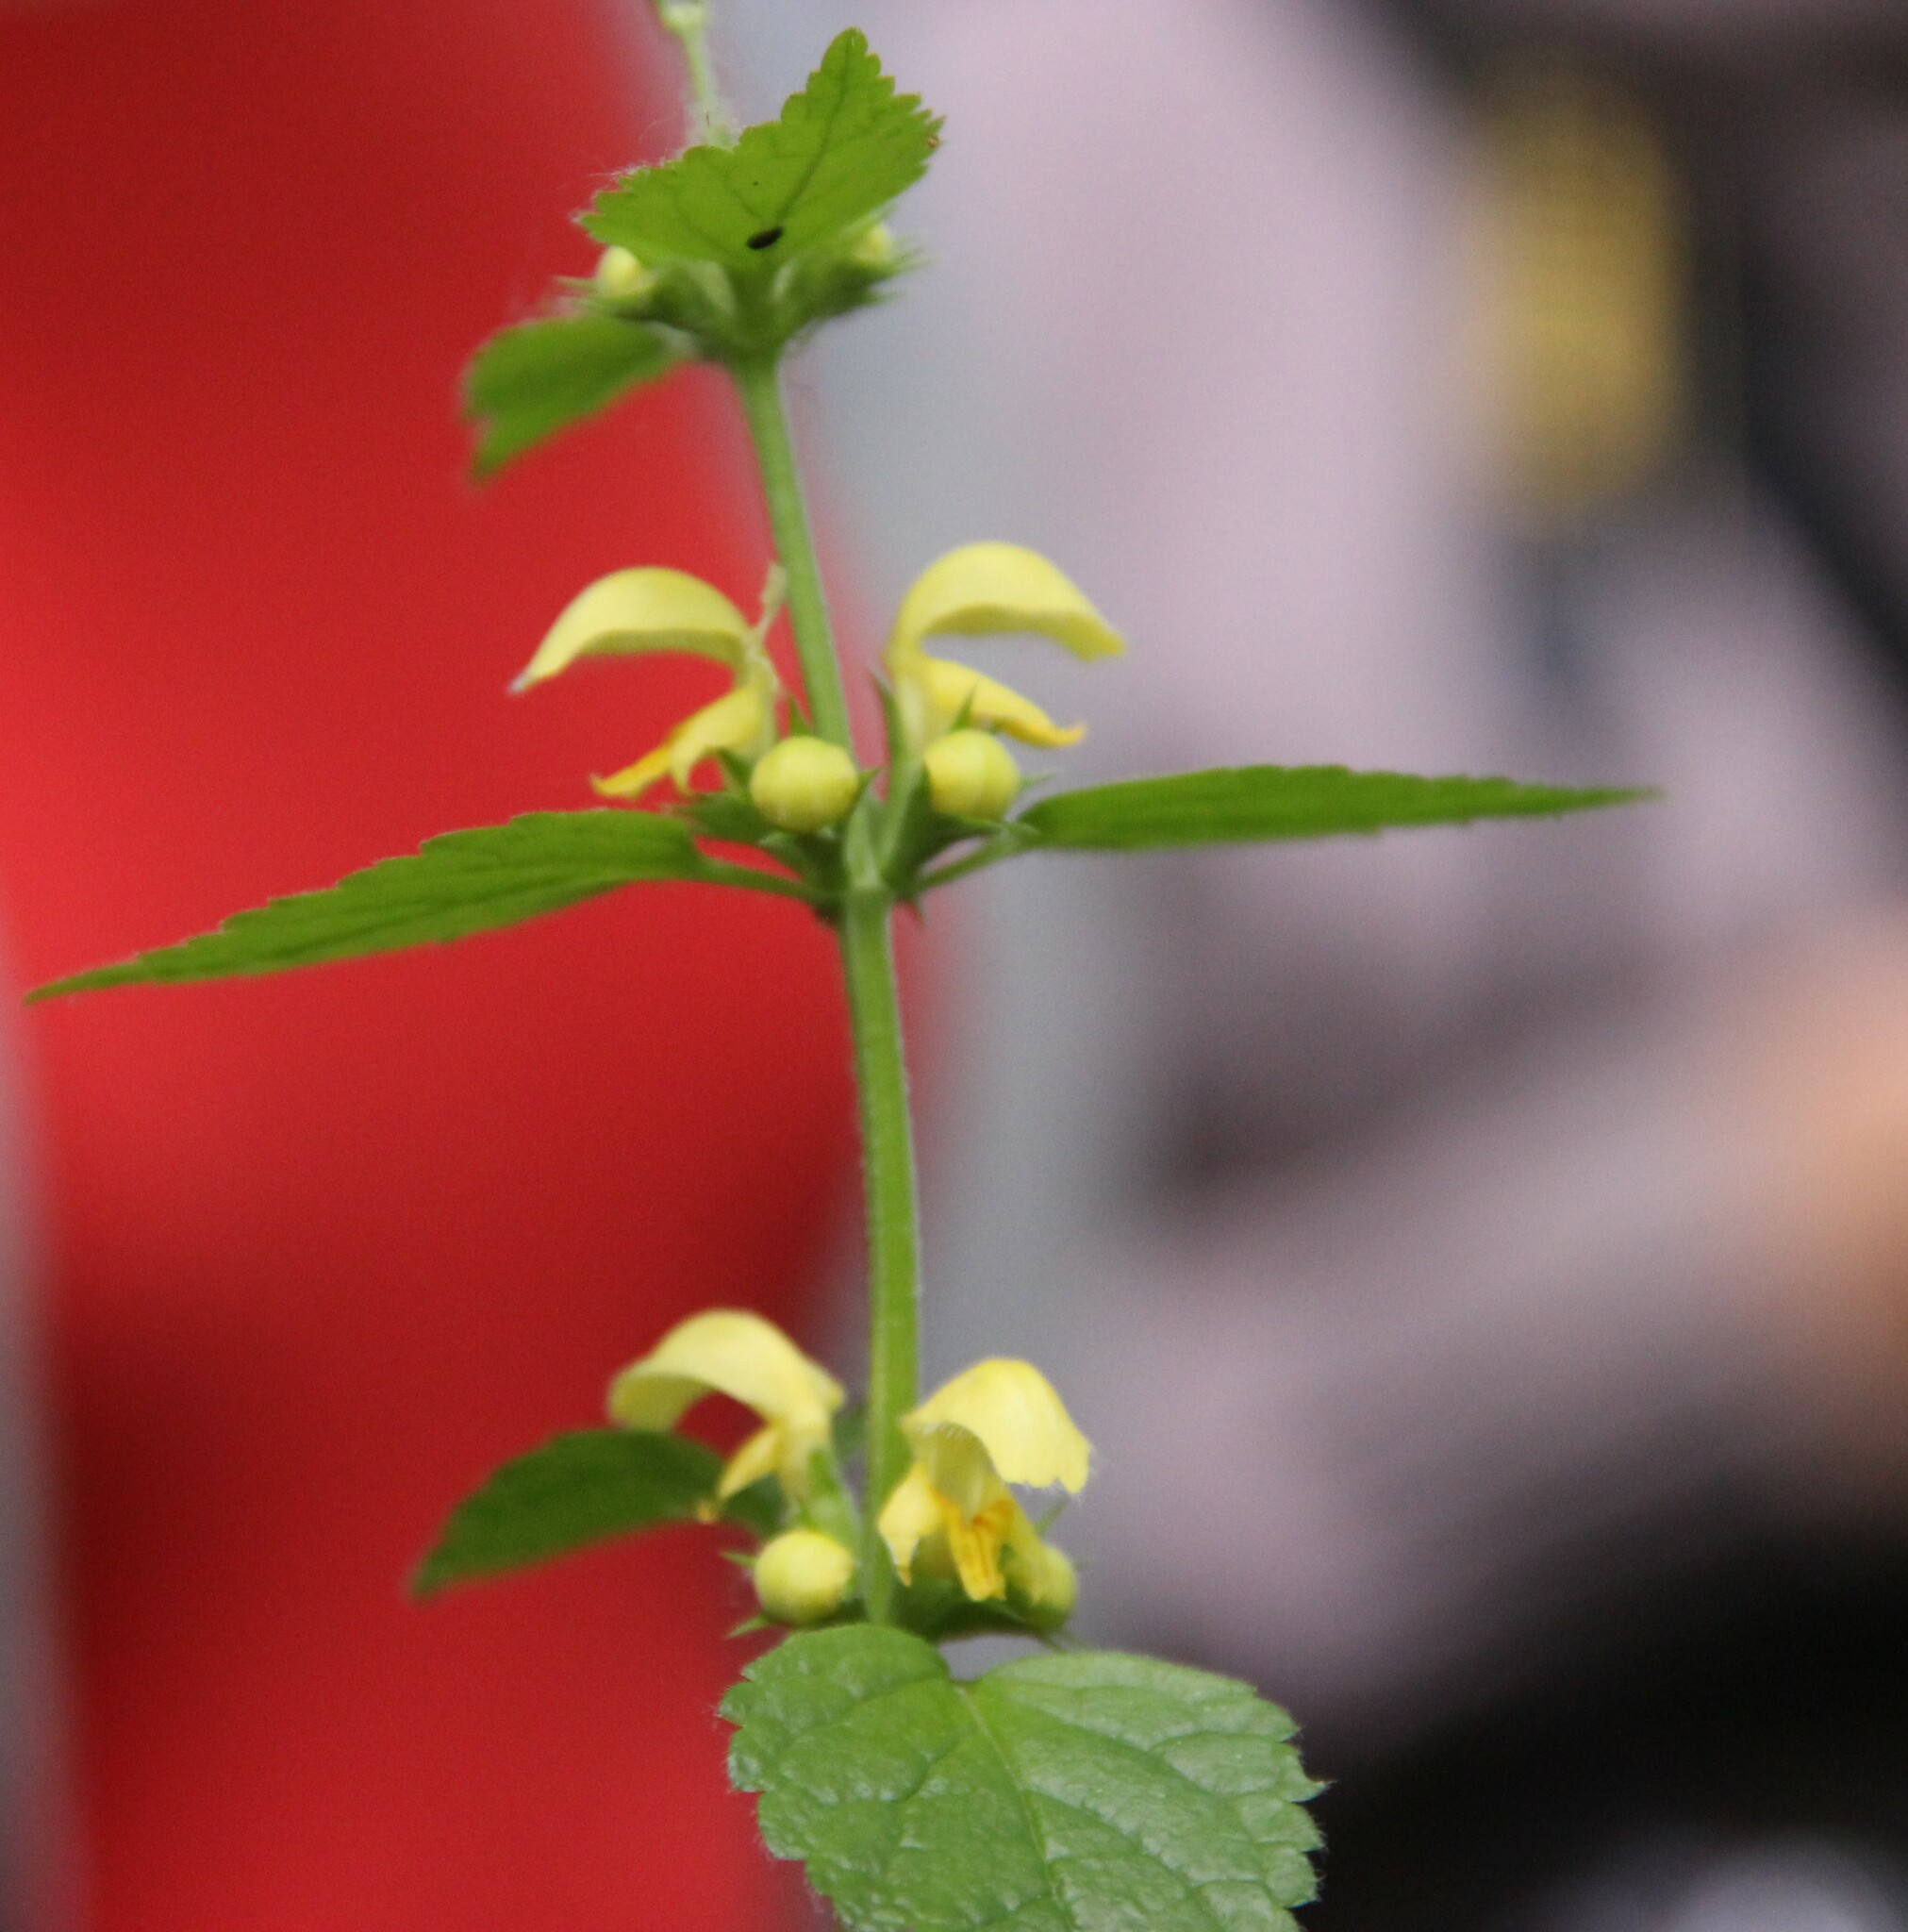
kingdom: Plantae
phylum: Tracheophyta
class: Magnoliopsida
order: Lamiales
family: Lamiaceae
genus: Lamium
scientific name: Lamium galeobdolon
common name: Yellow archangel
